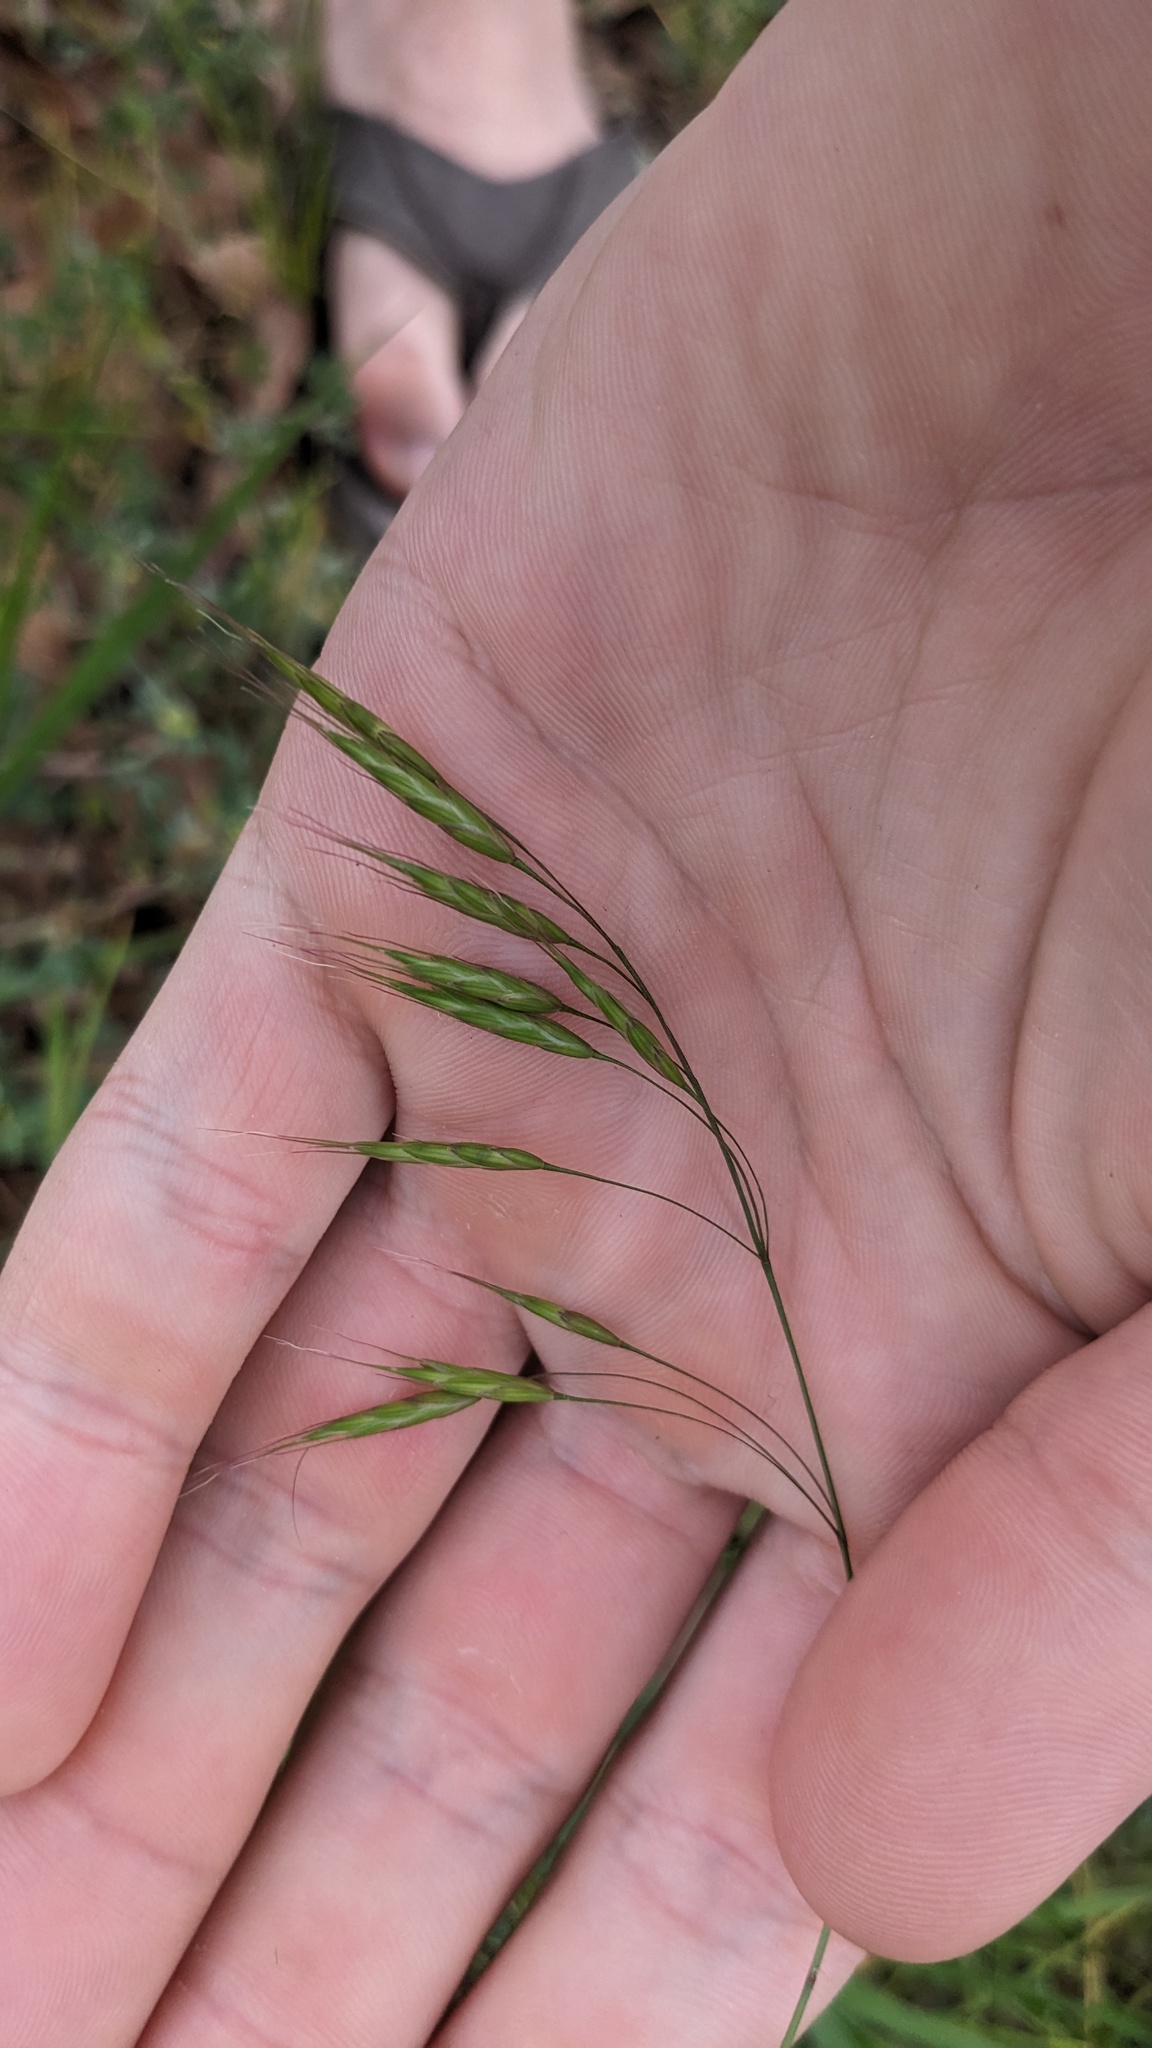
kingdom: Plantae
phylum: Tracheophyta
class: Liliopsida
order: Poales
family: Poaceae
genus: Bromus
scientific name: Bromus japonicus
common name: Japanese brome
